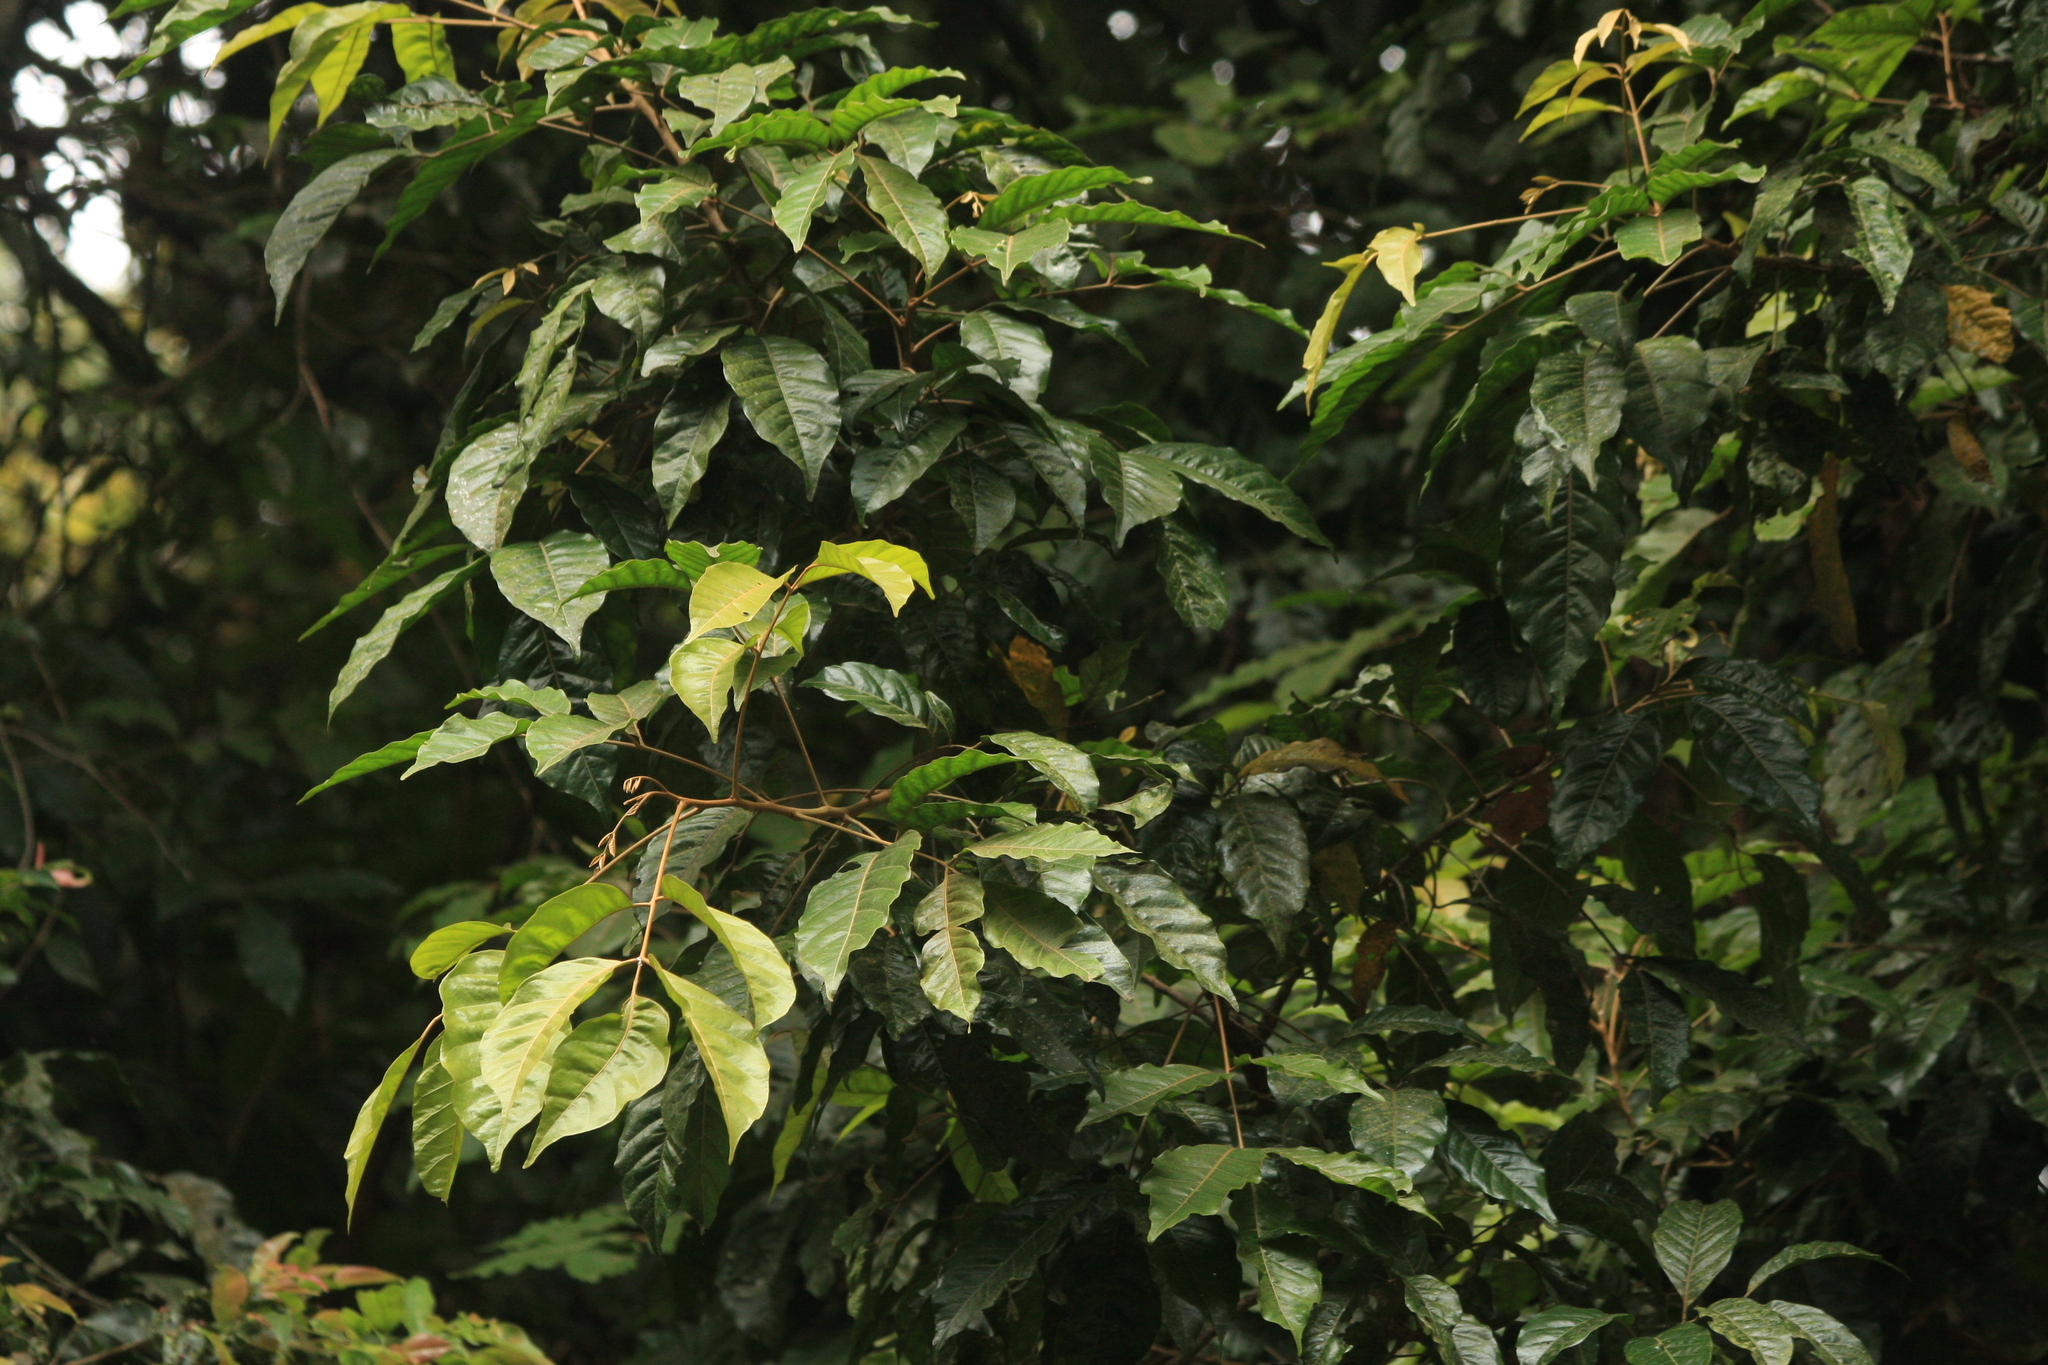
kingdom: Plantae
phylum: Tracheophyta
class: Magnoliopsida
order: Sapindales
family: Meliaceae
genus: Aglaia
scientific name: Aglaia lawii
